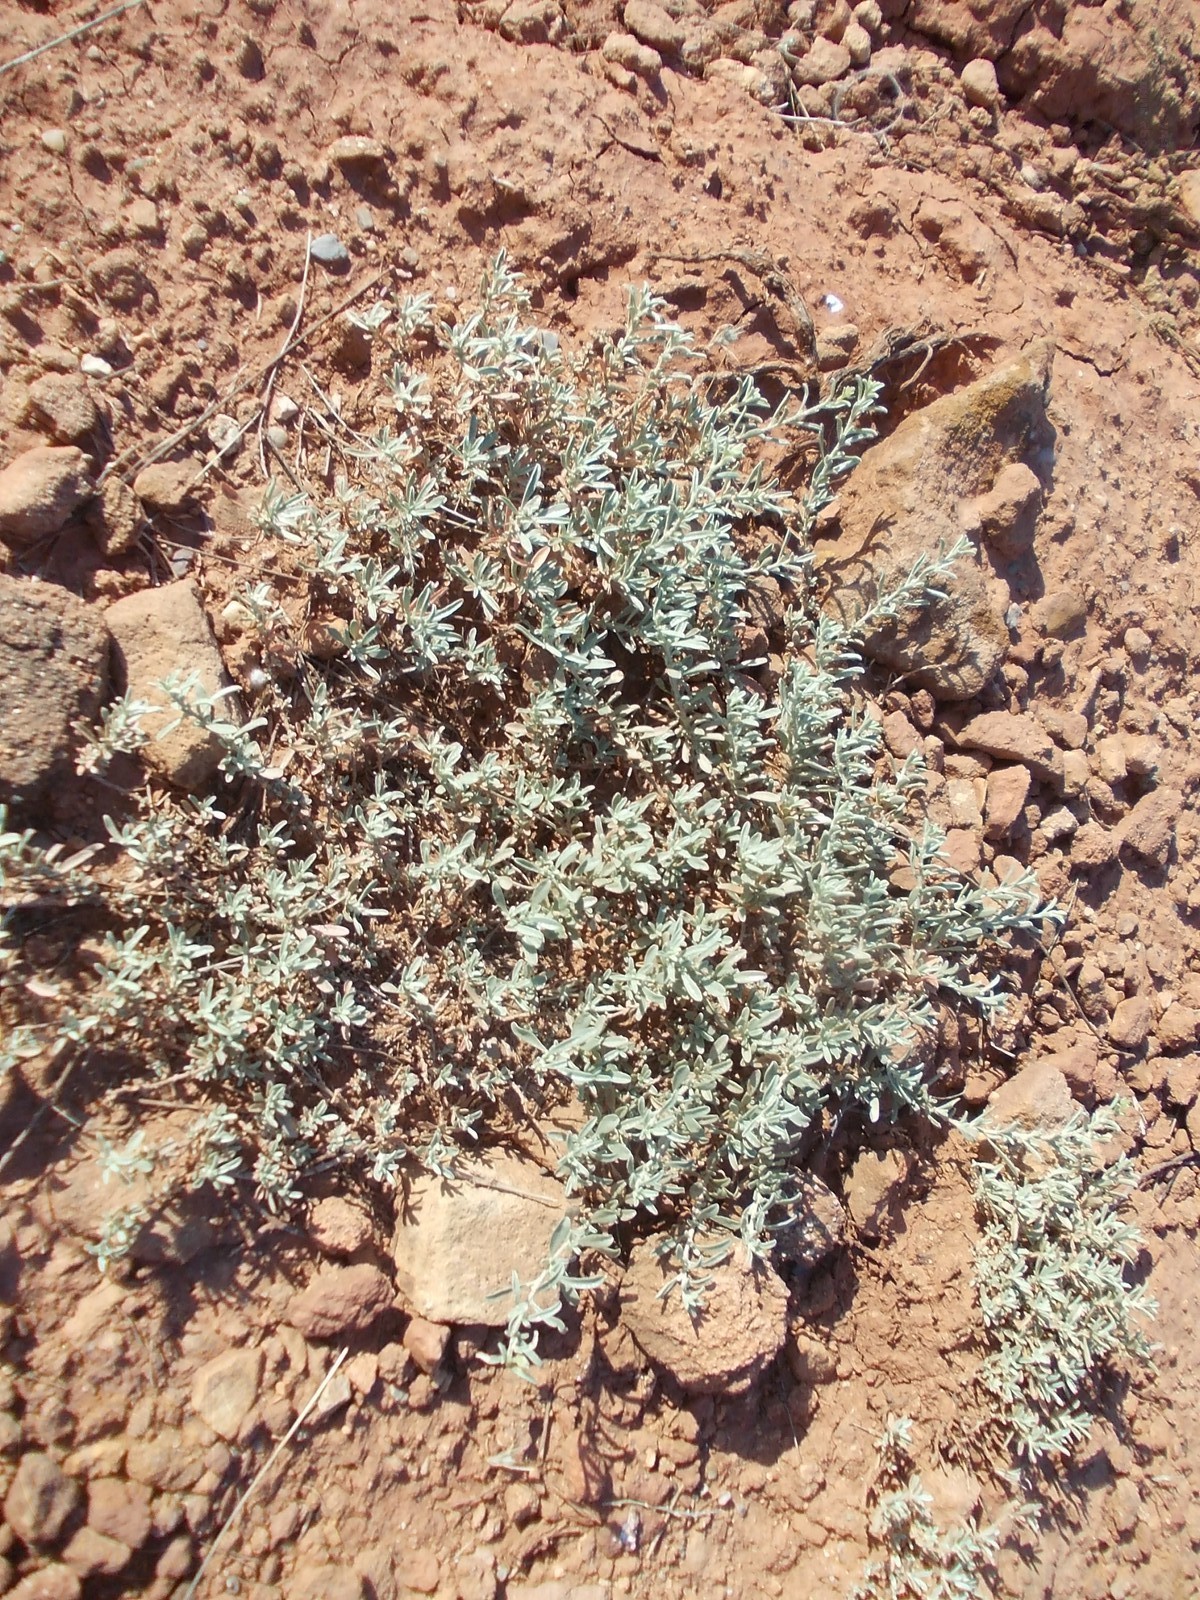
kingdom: Plantae
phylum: Tracheophyta
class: Magnoliopsida
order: Caryophyllales
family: Amaranthaceae
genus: Atriplex
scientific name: Atriplex cana
